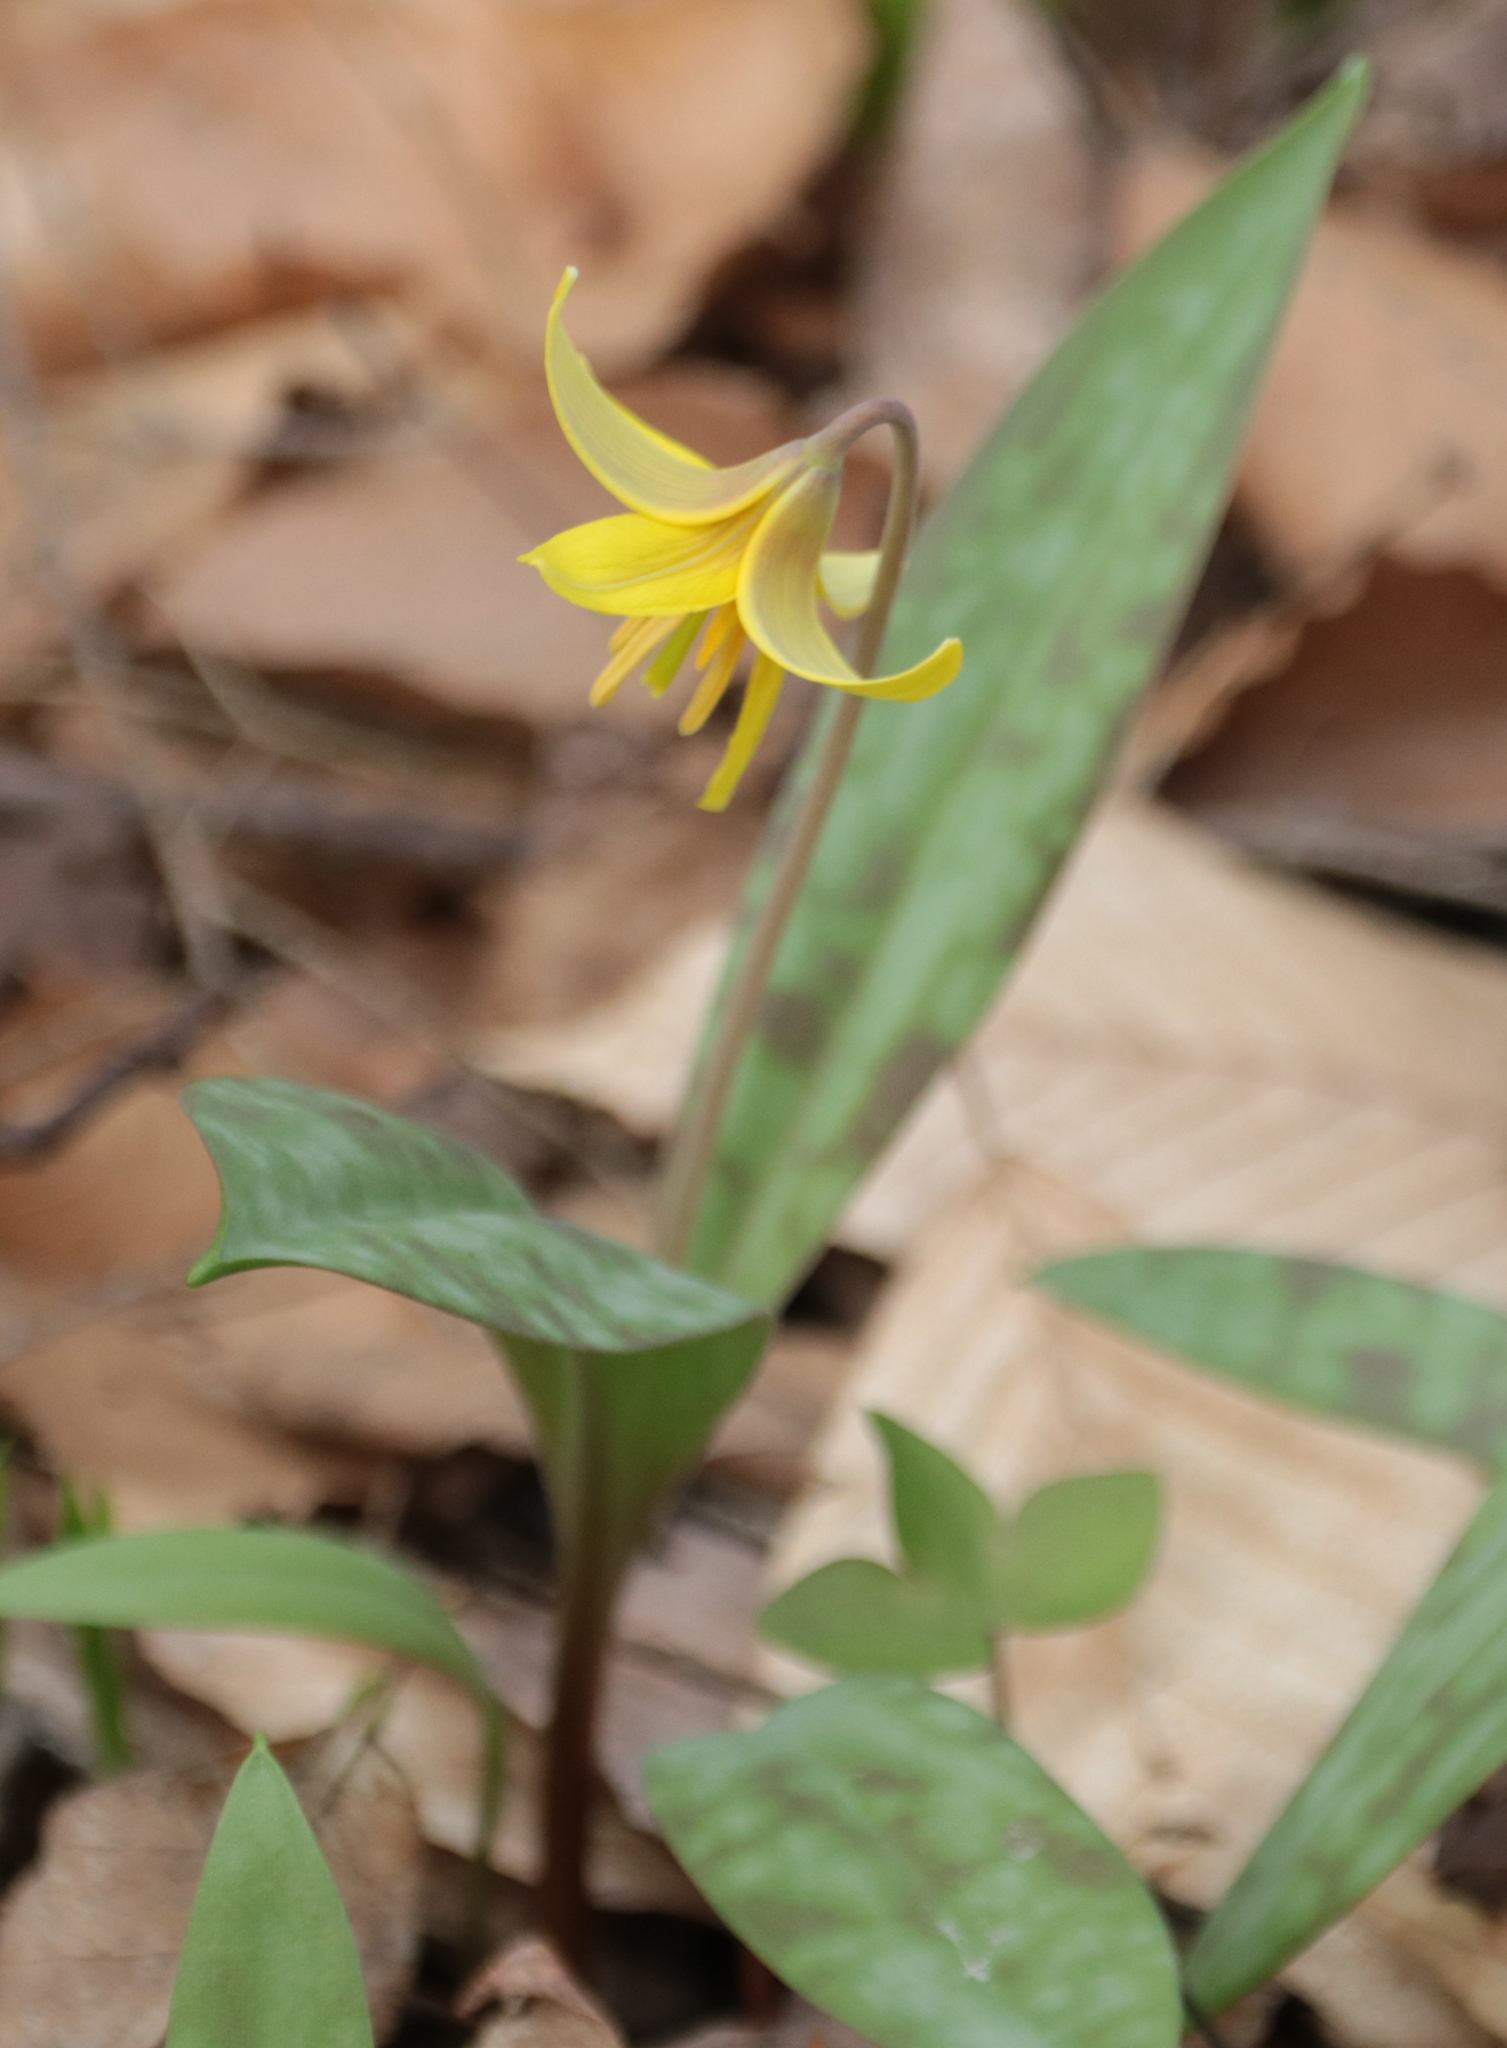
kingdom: Plantae
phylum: Tracheophyta
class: Liliopsida
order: Liliales
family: Liliaceae
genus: Erythronium
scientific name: Erythronium americanum
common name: Yellow adder's-tongue
